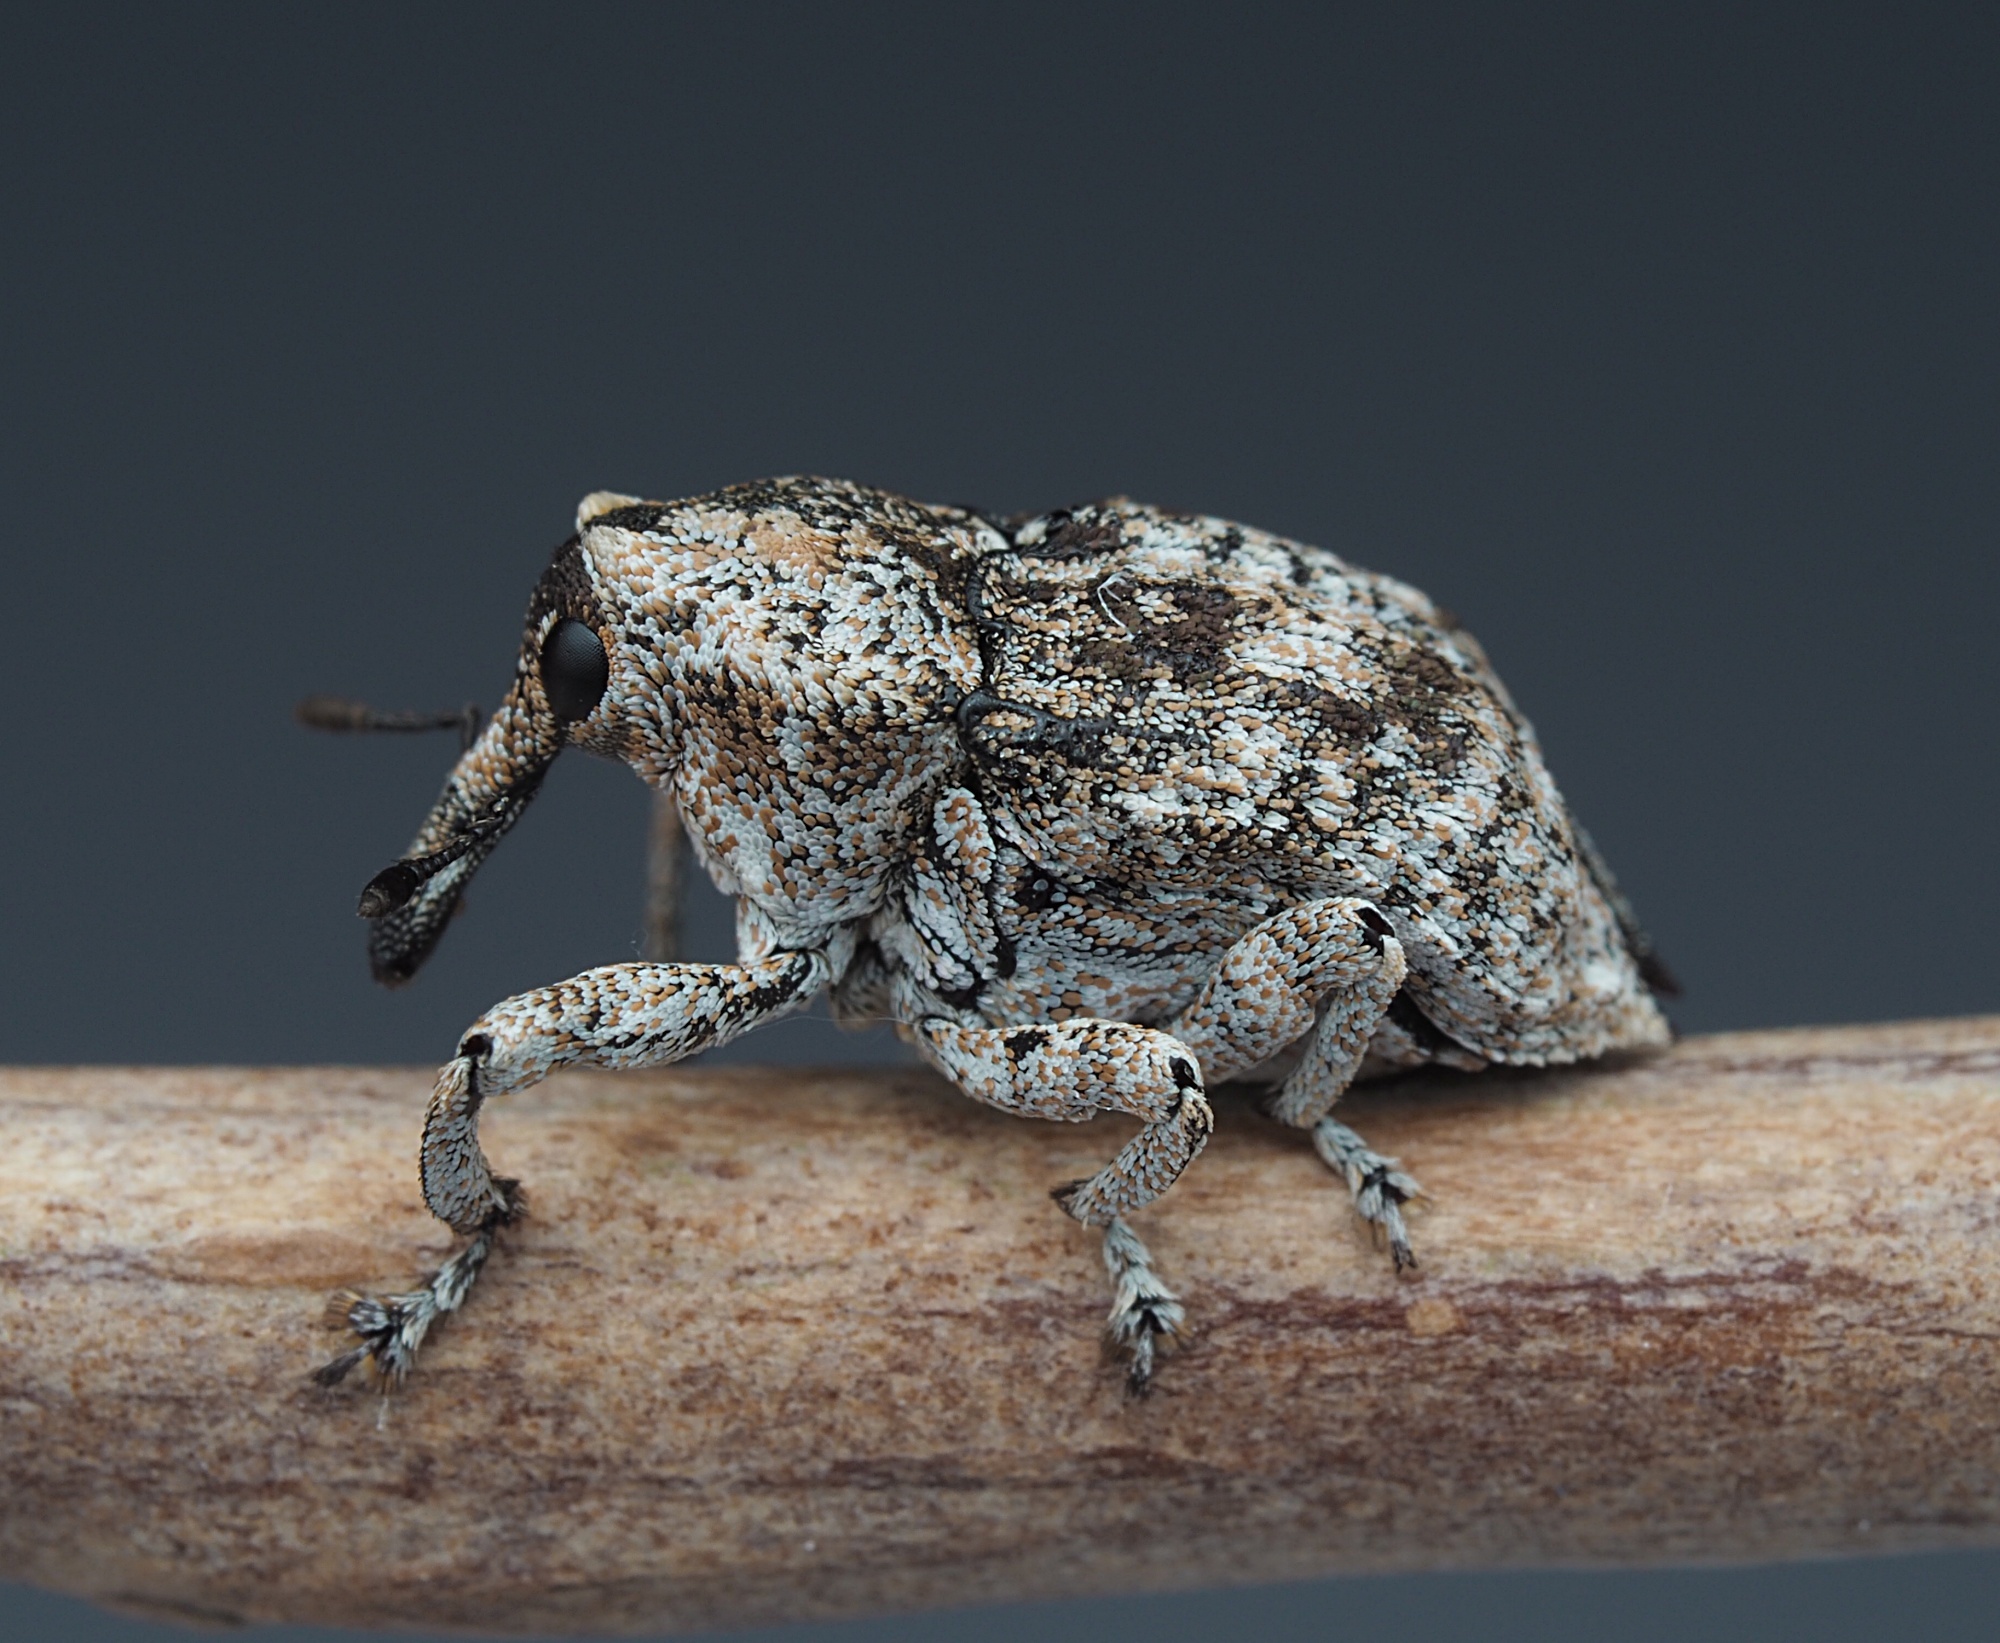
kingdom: Animalia
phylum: Arthropoda
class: Insecta
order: Coleoptera
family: Curculionidae
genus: Euthyrhinus
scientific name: Euthyrhinus squamiger
